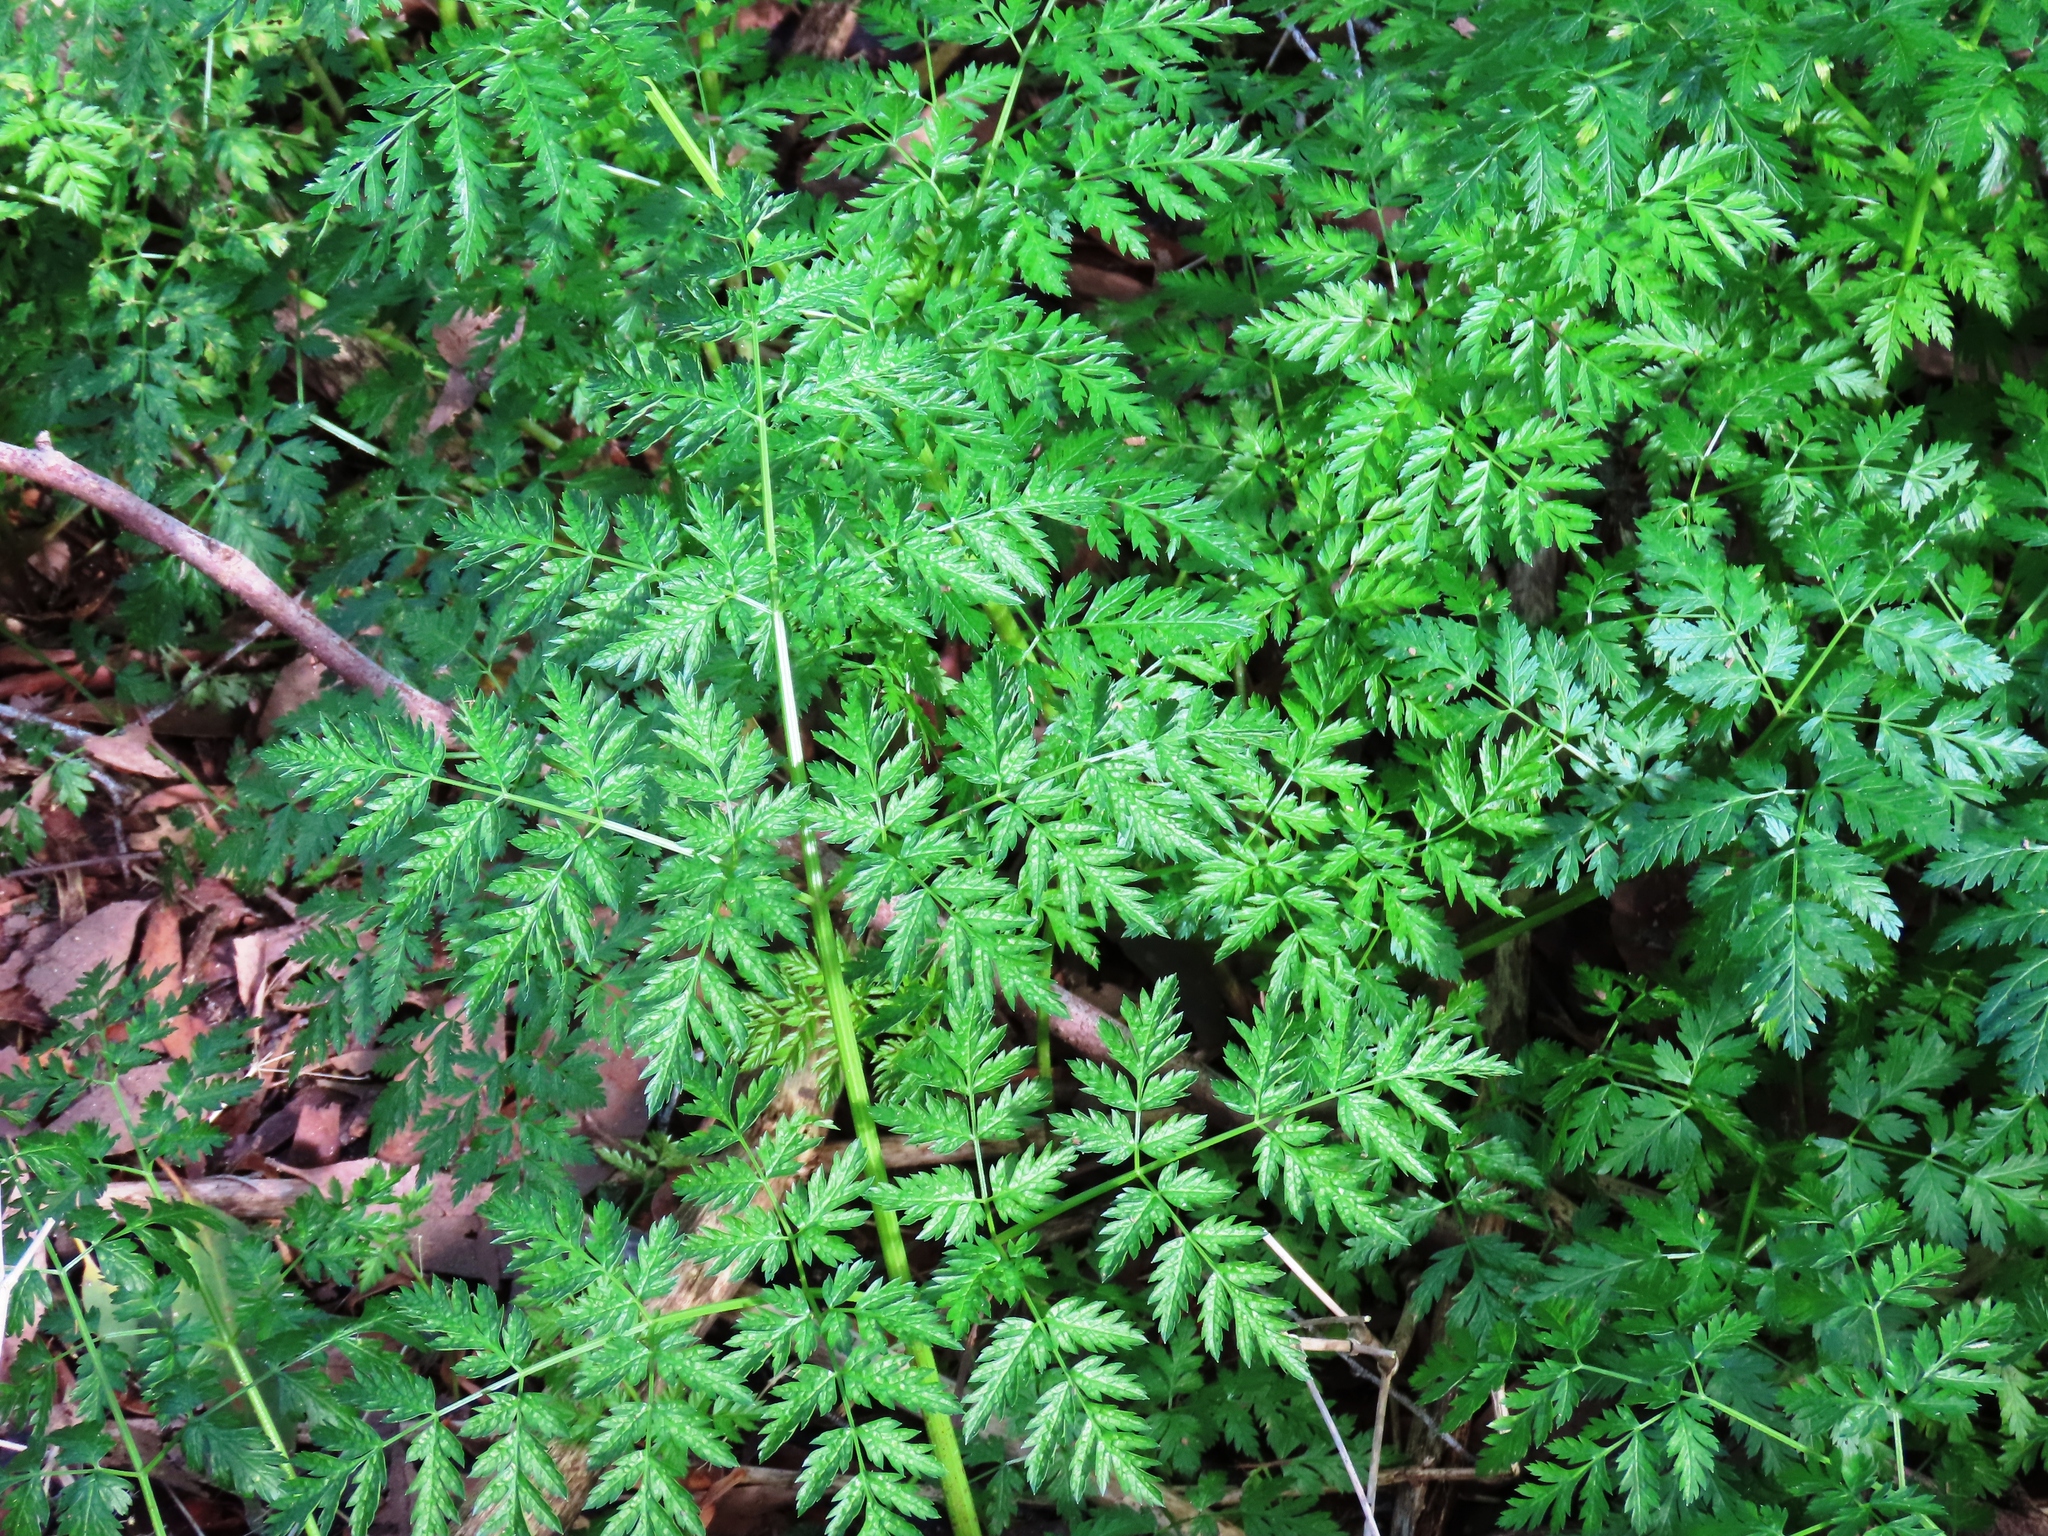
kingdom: Plantae
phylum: Tracheophyta
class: Magnoliopsida
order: Apiales
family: Apiaceae
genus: Conium
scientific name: Conium maculatum
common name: Hemlock
